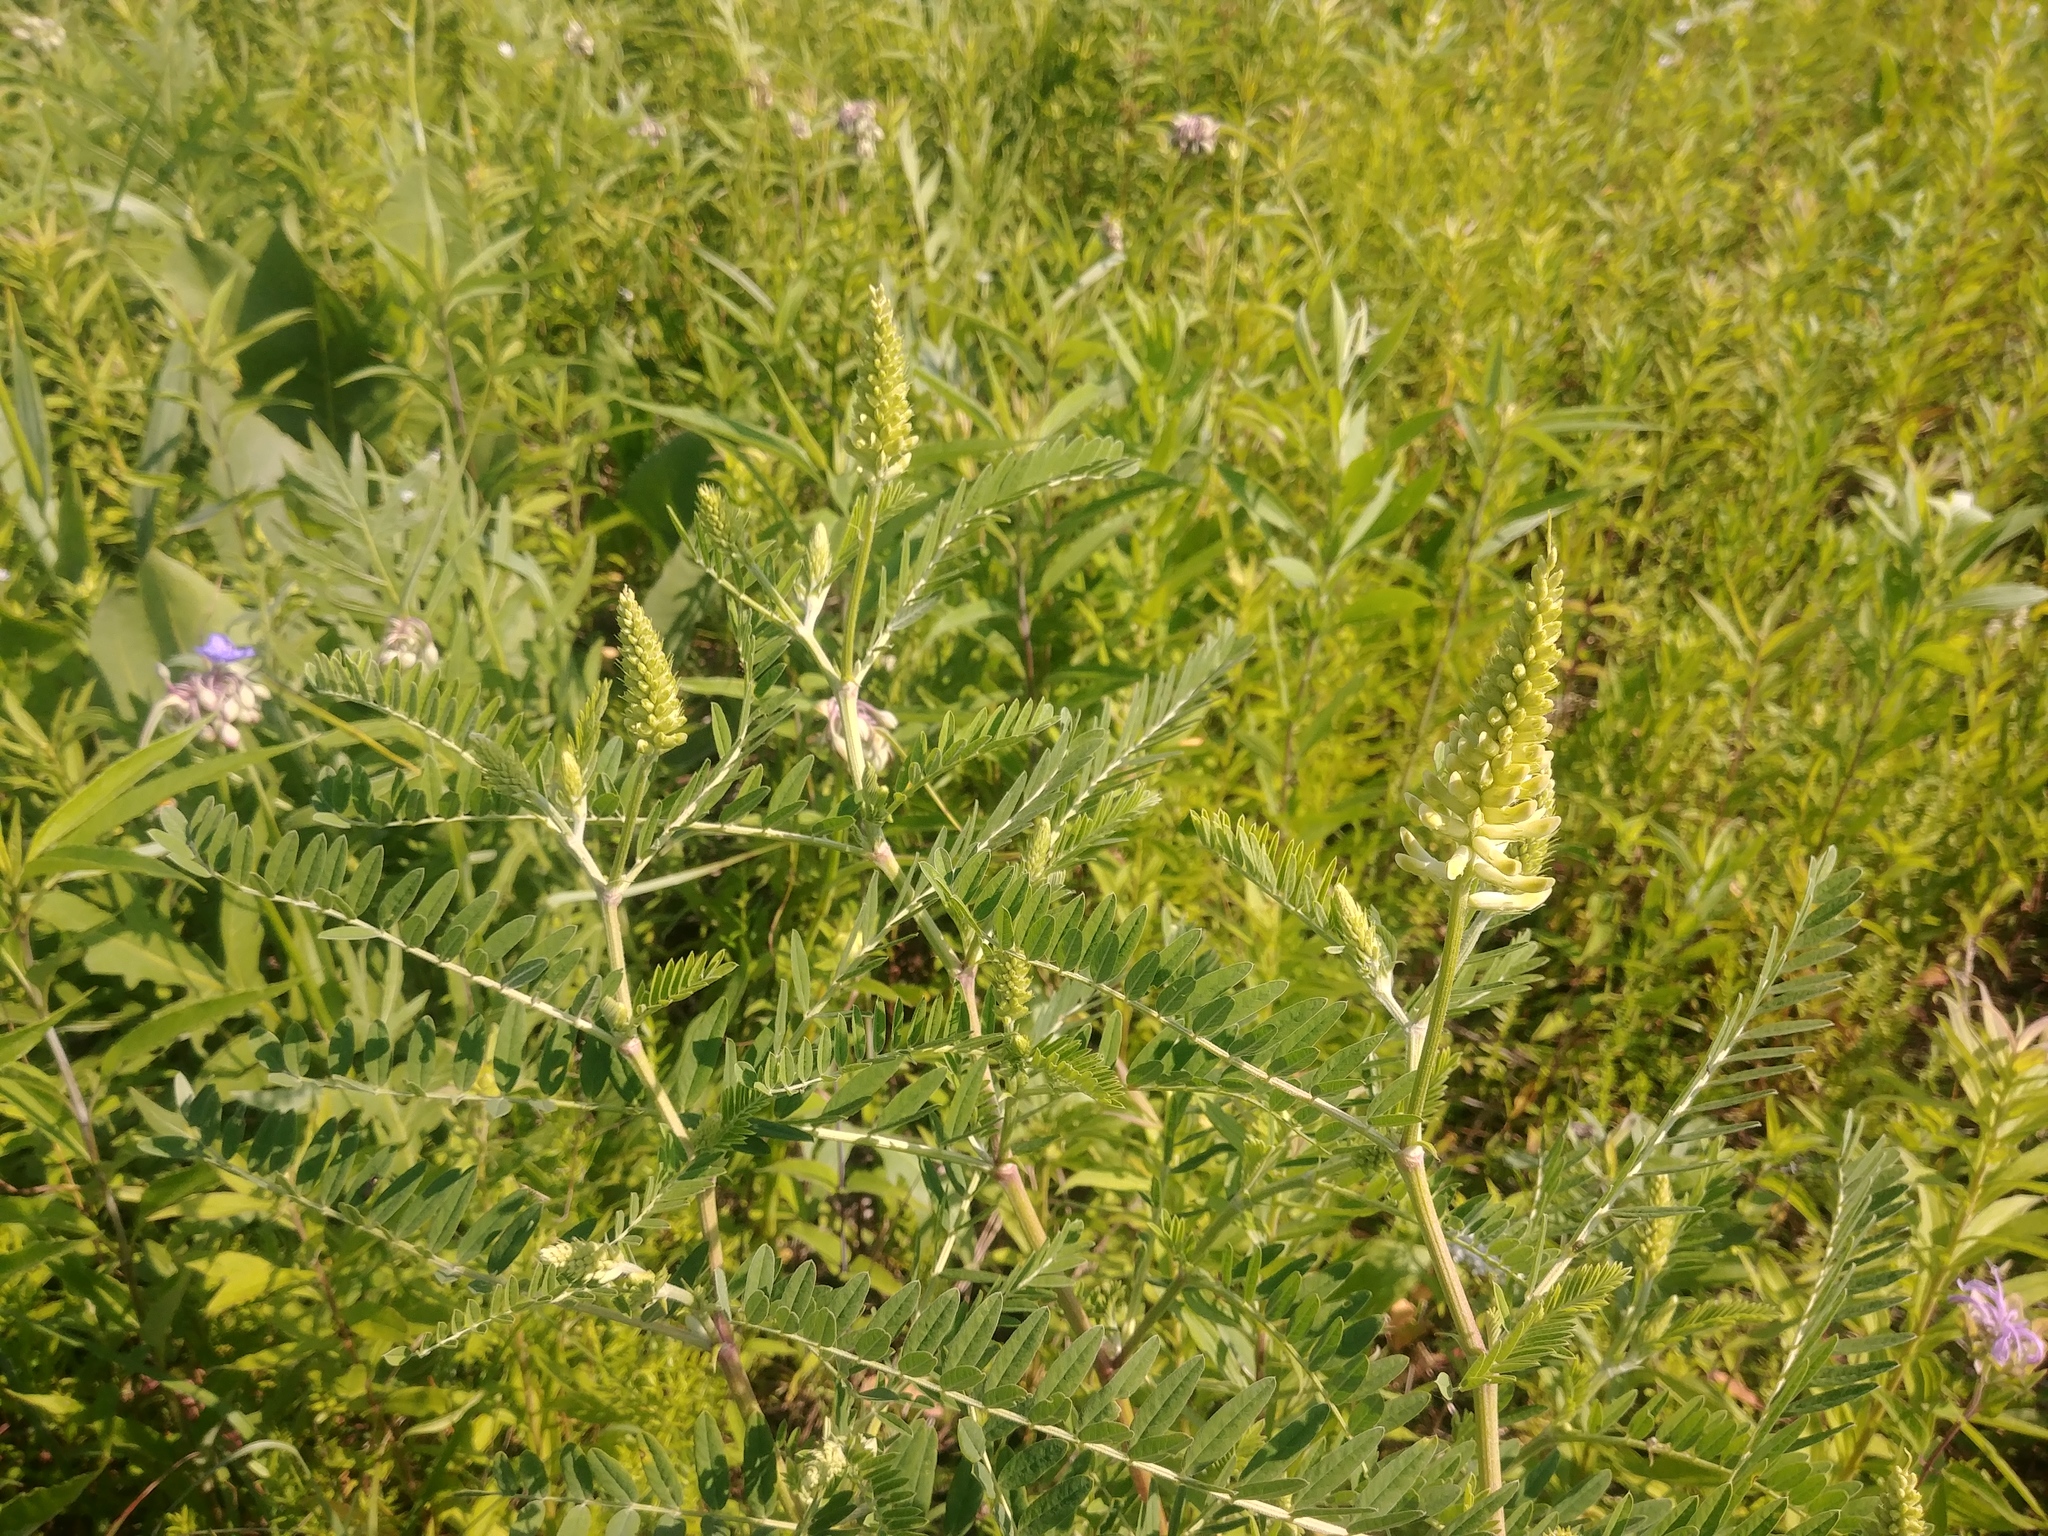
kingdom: Plantae
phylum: Tracheophyta
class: Magnoliopsida
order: Fabales
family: Fabaceae
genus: Astragalus
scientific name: Astragalus canadensis
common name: Canada milk-vetch
